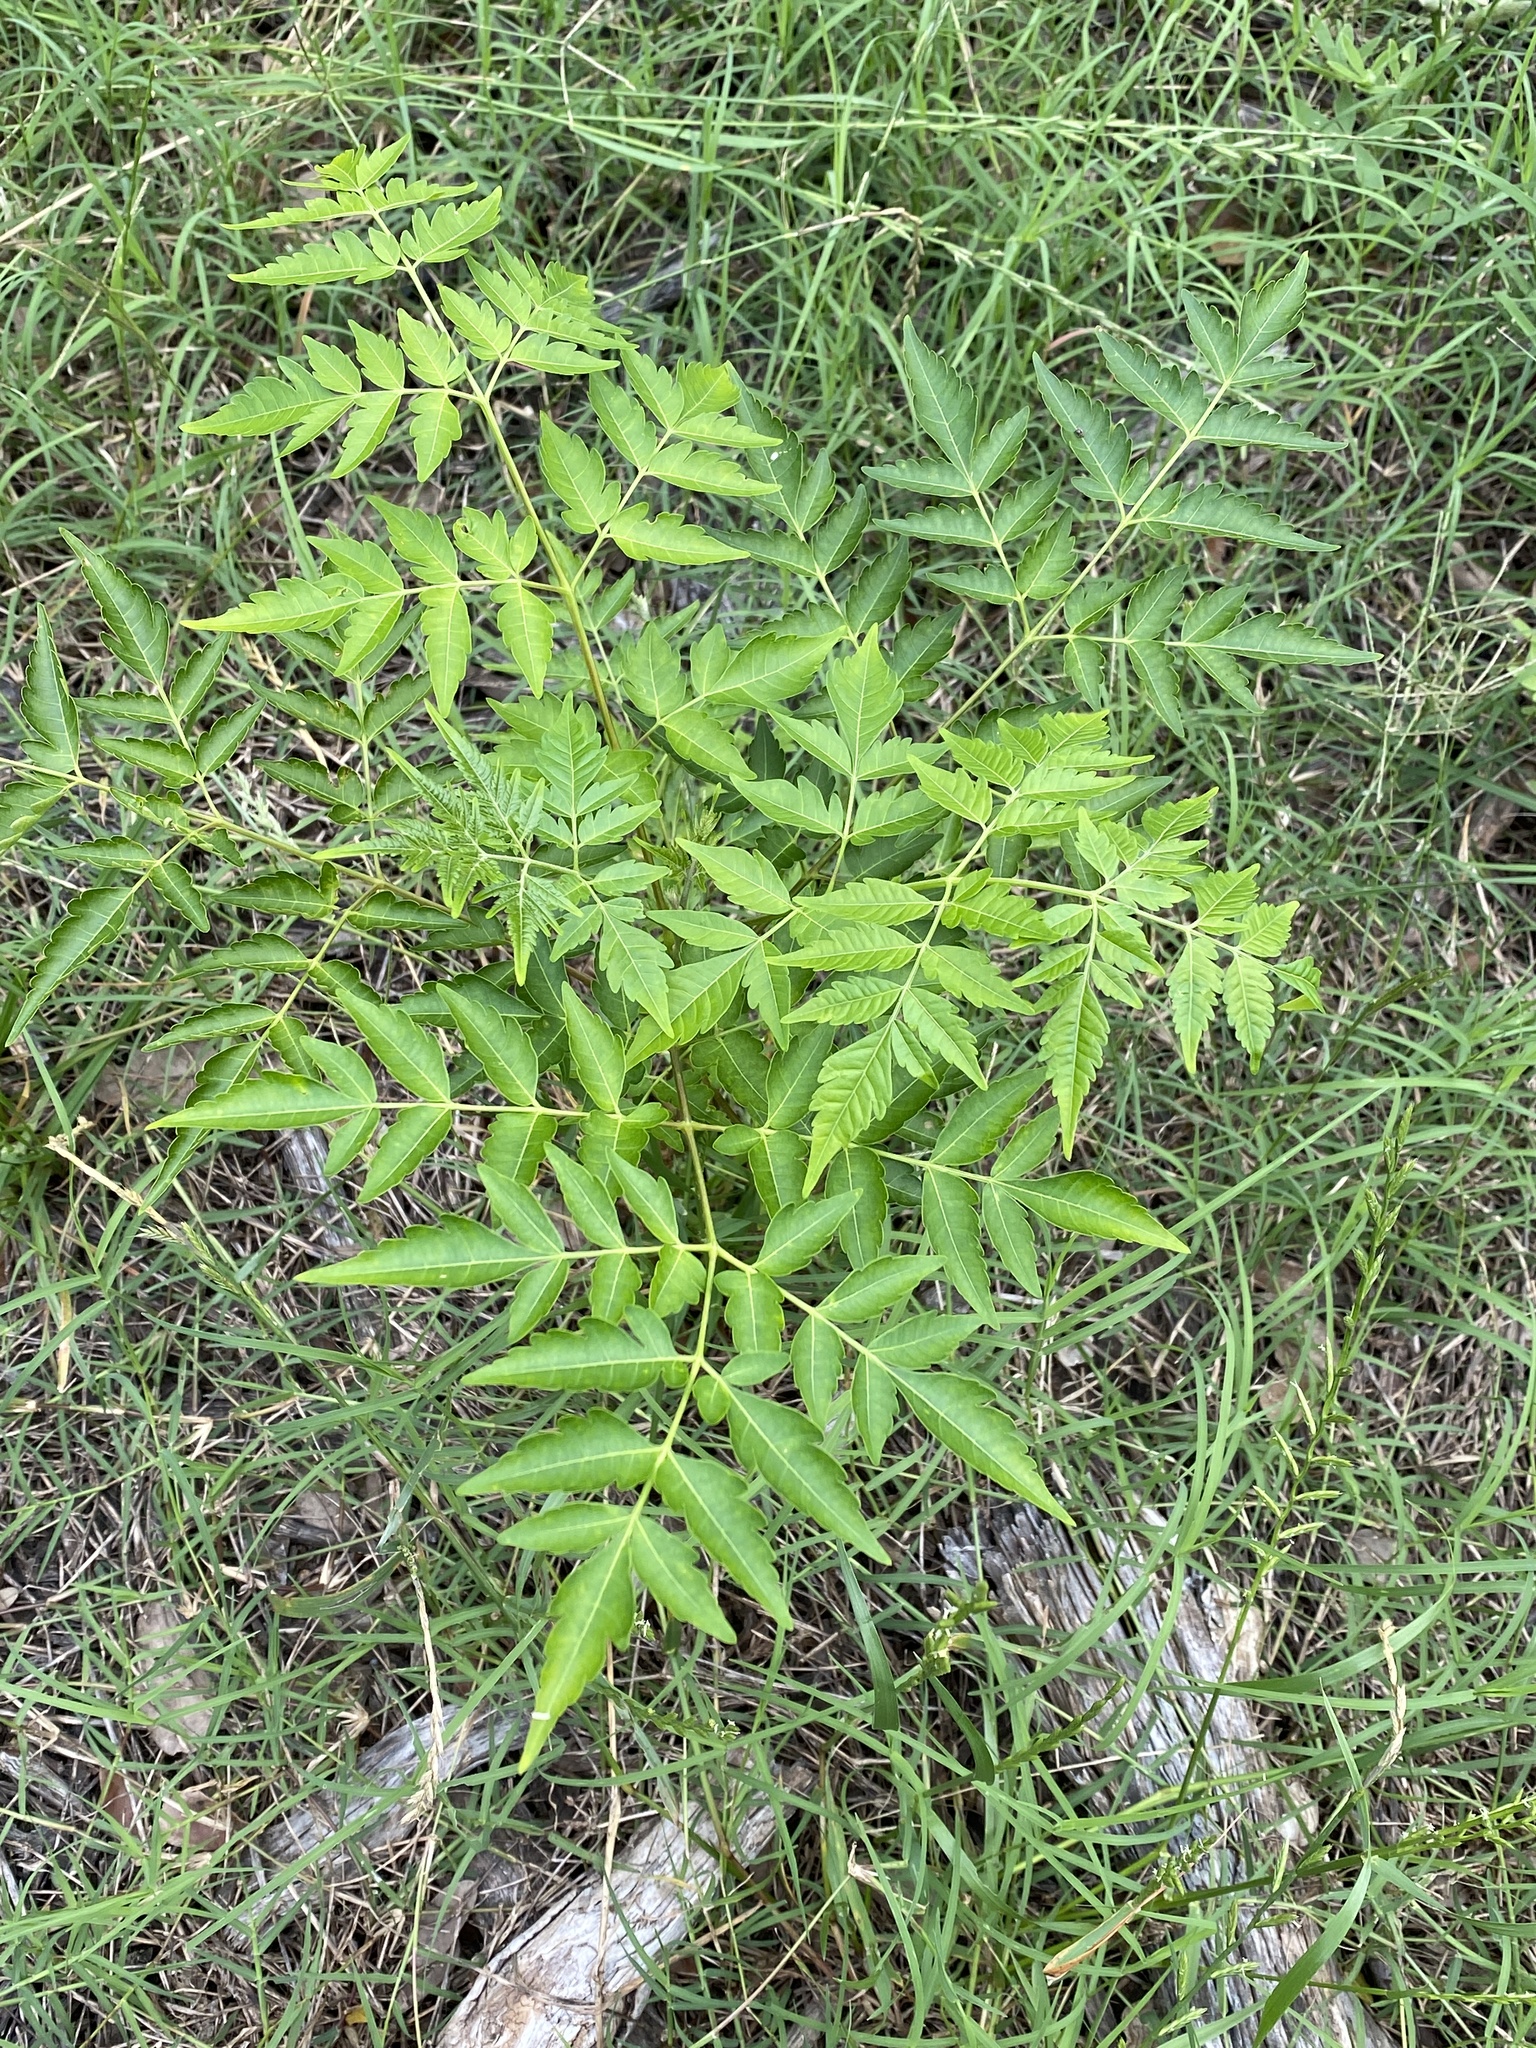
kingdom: Plantae
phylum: Tracheophyta
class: Magnoliopsida
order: Sapindales
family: Meliaceae
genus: Melia
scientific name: Melia azedarach
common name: Chinaberrytree
